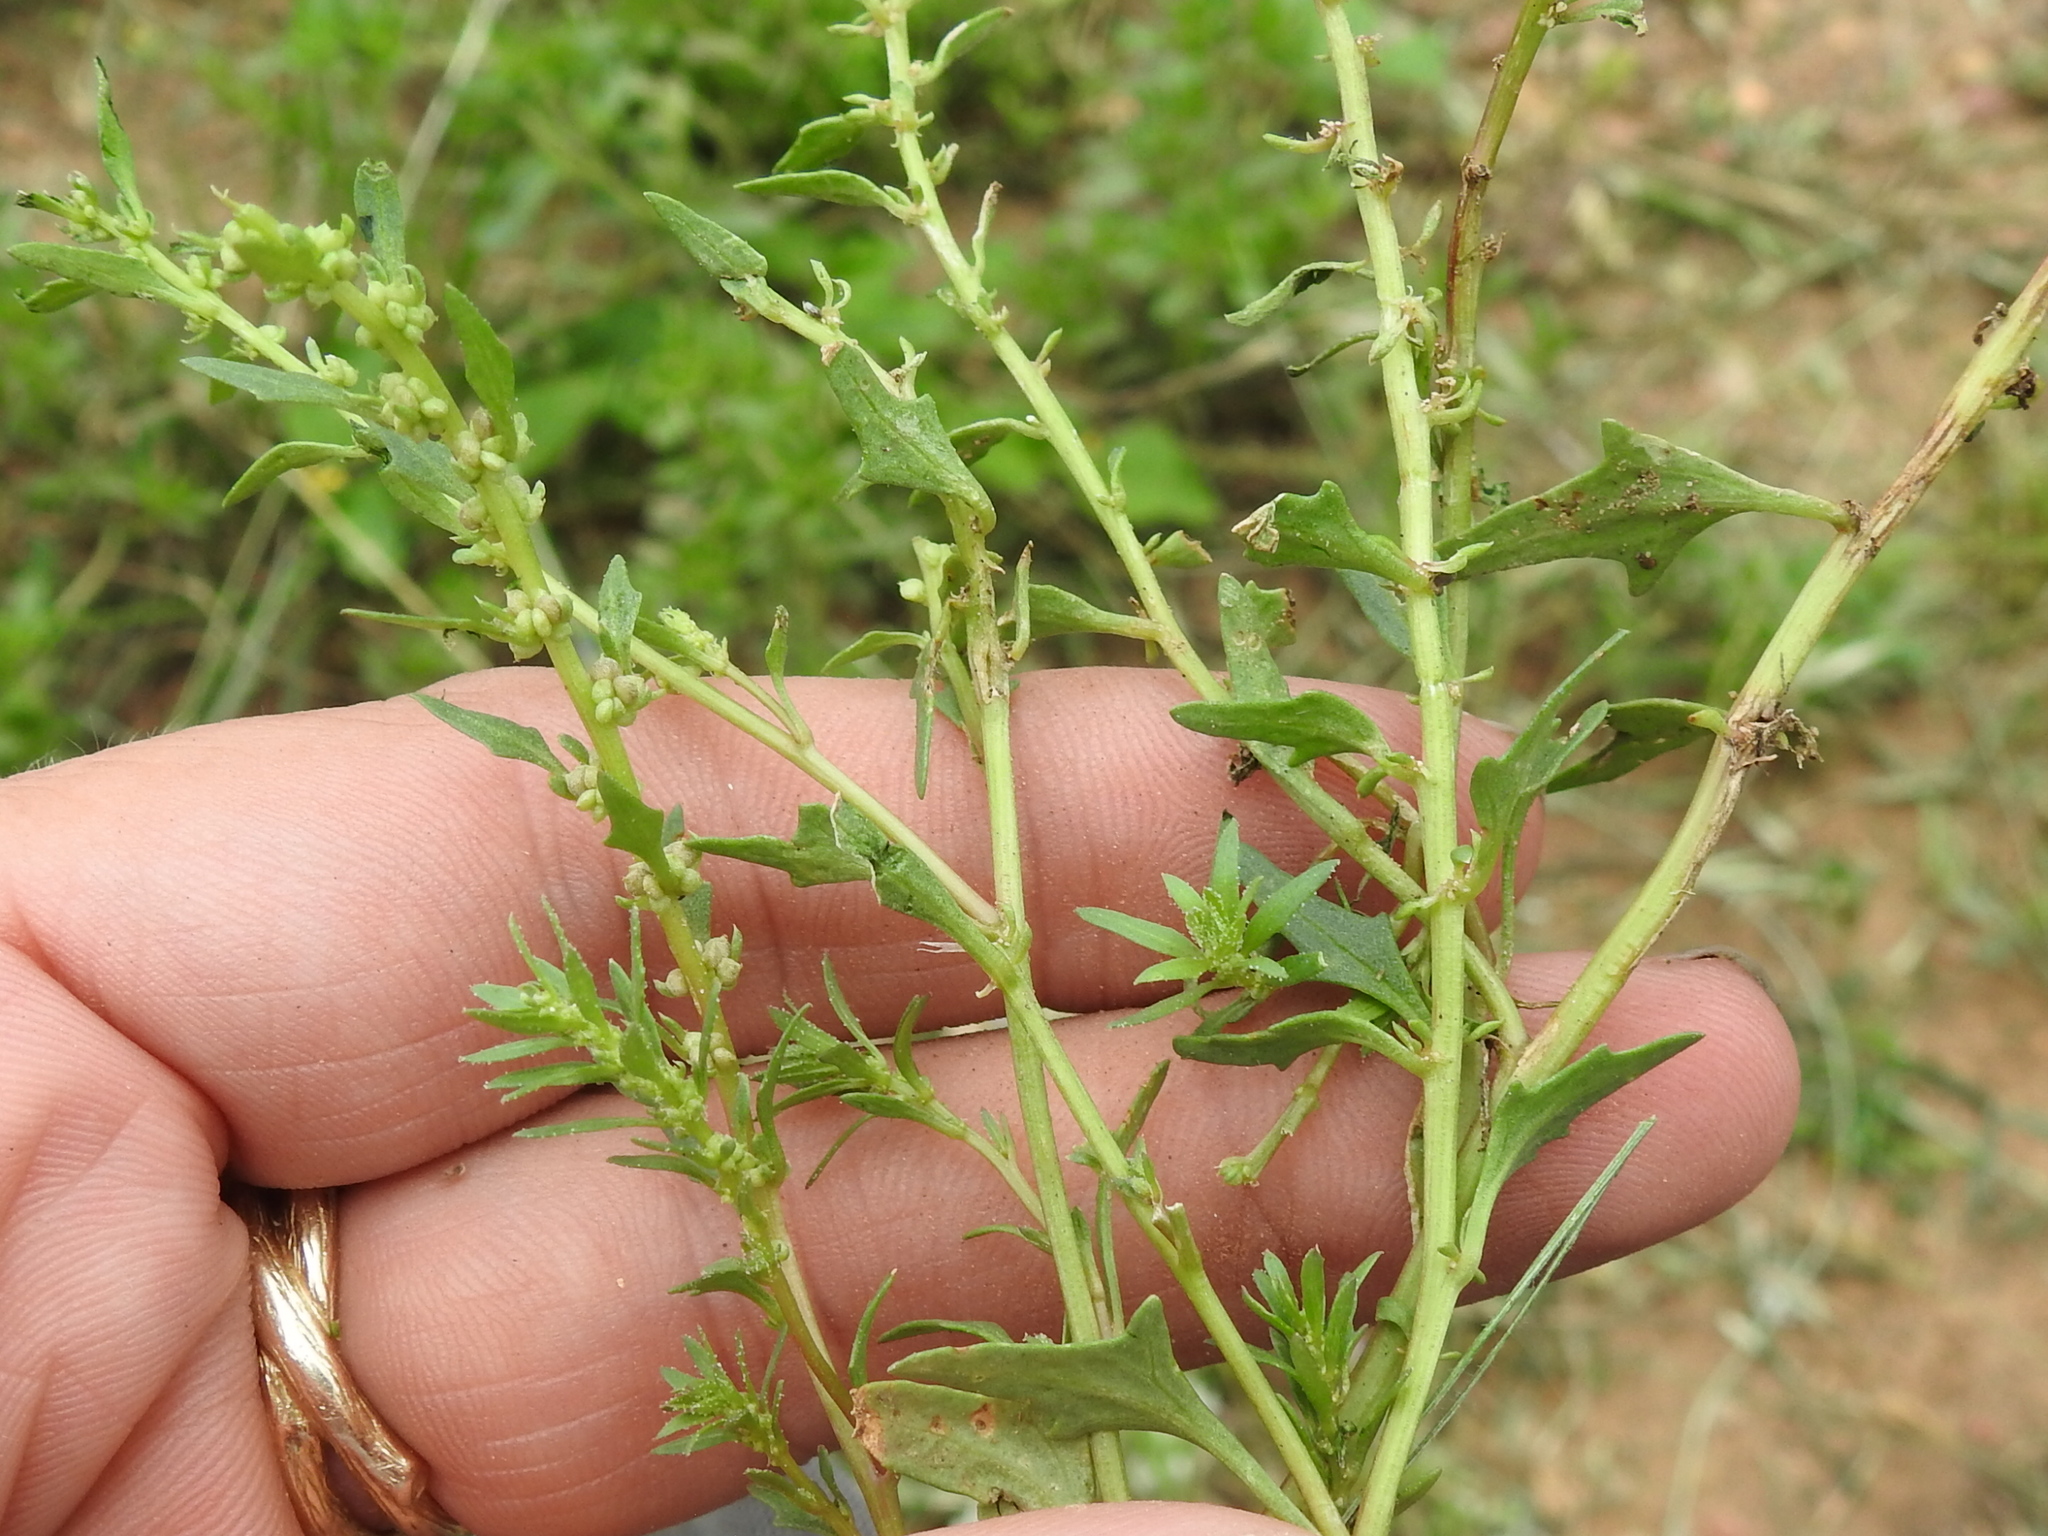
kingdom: Plantae
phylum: Tracheophyta
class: Magnoliopsida
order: Caryophyllales
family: Amaranthaceae
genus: Blitum
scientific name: Blitum nuttallianum
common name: Poverty-weed
